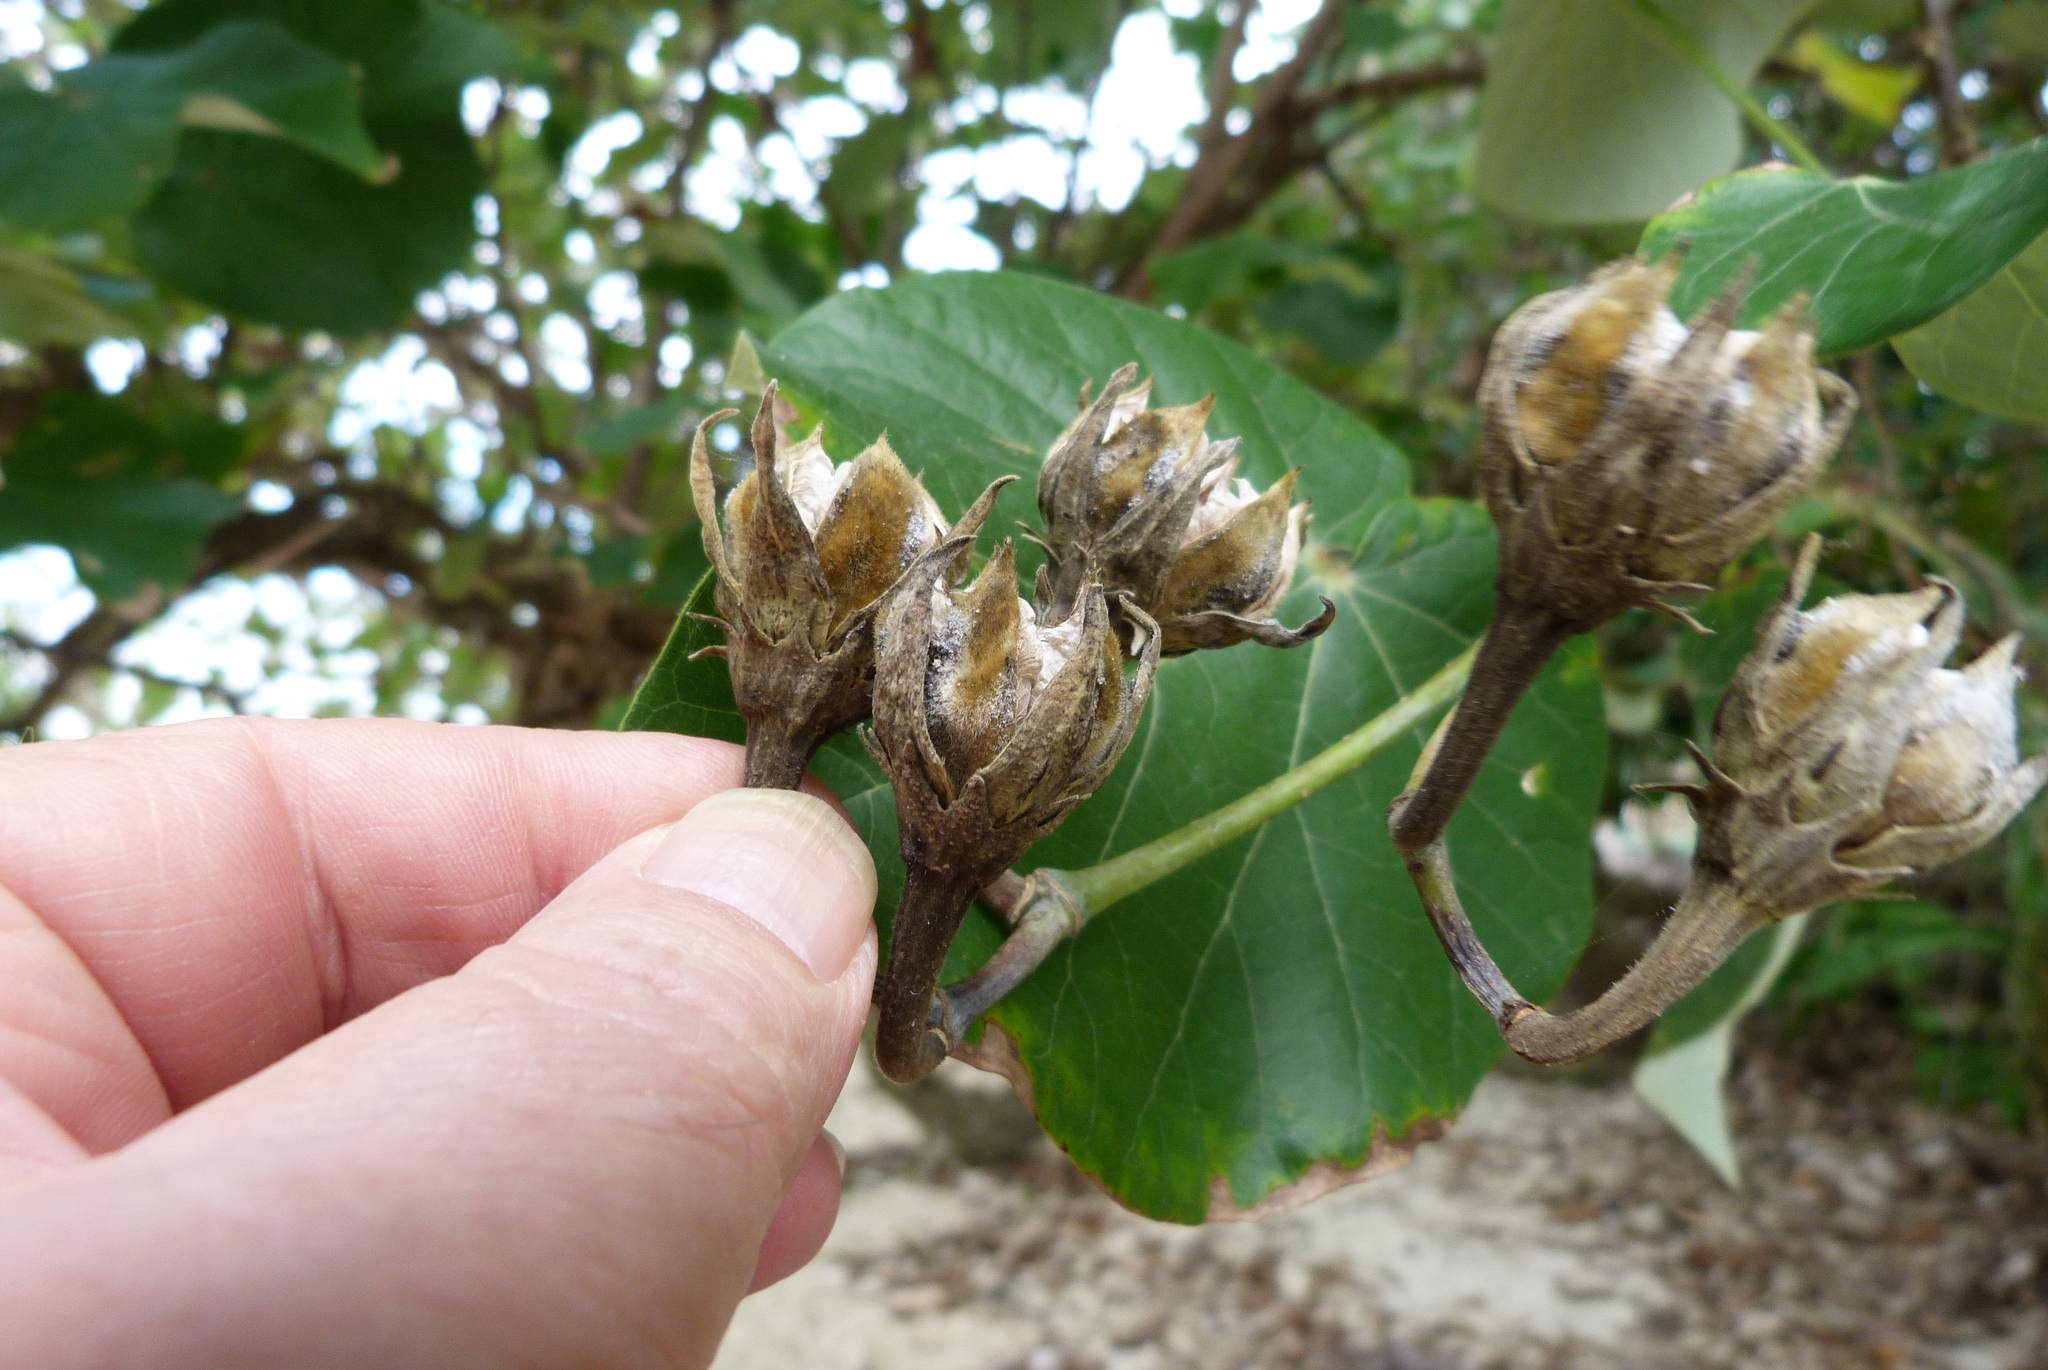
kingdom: Plantae
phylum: Tracheophyta
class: Magnoliopsida
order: Malvales
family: Malvaceae
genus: Talipariti
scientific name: Talipariti tiliaceum
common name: Sea hibiscus
